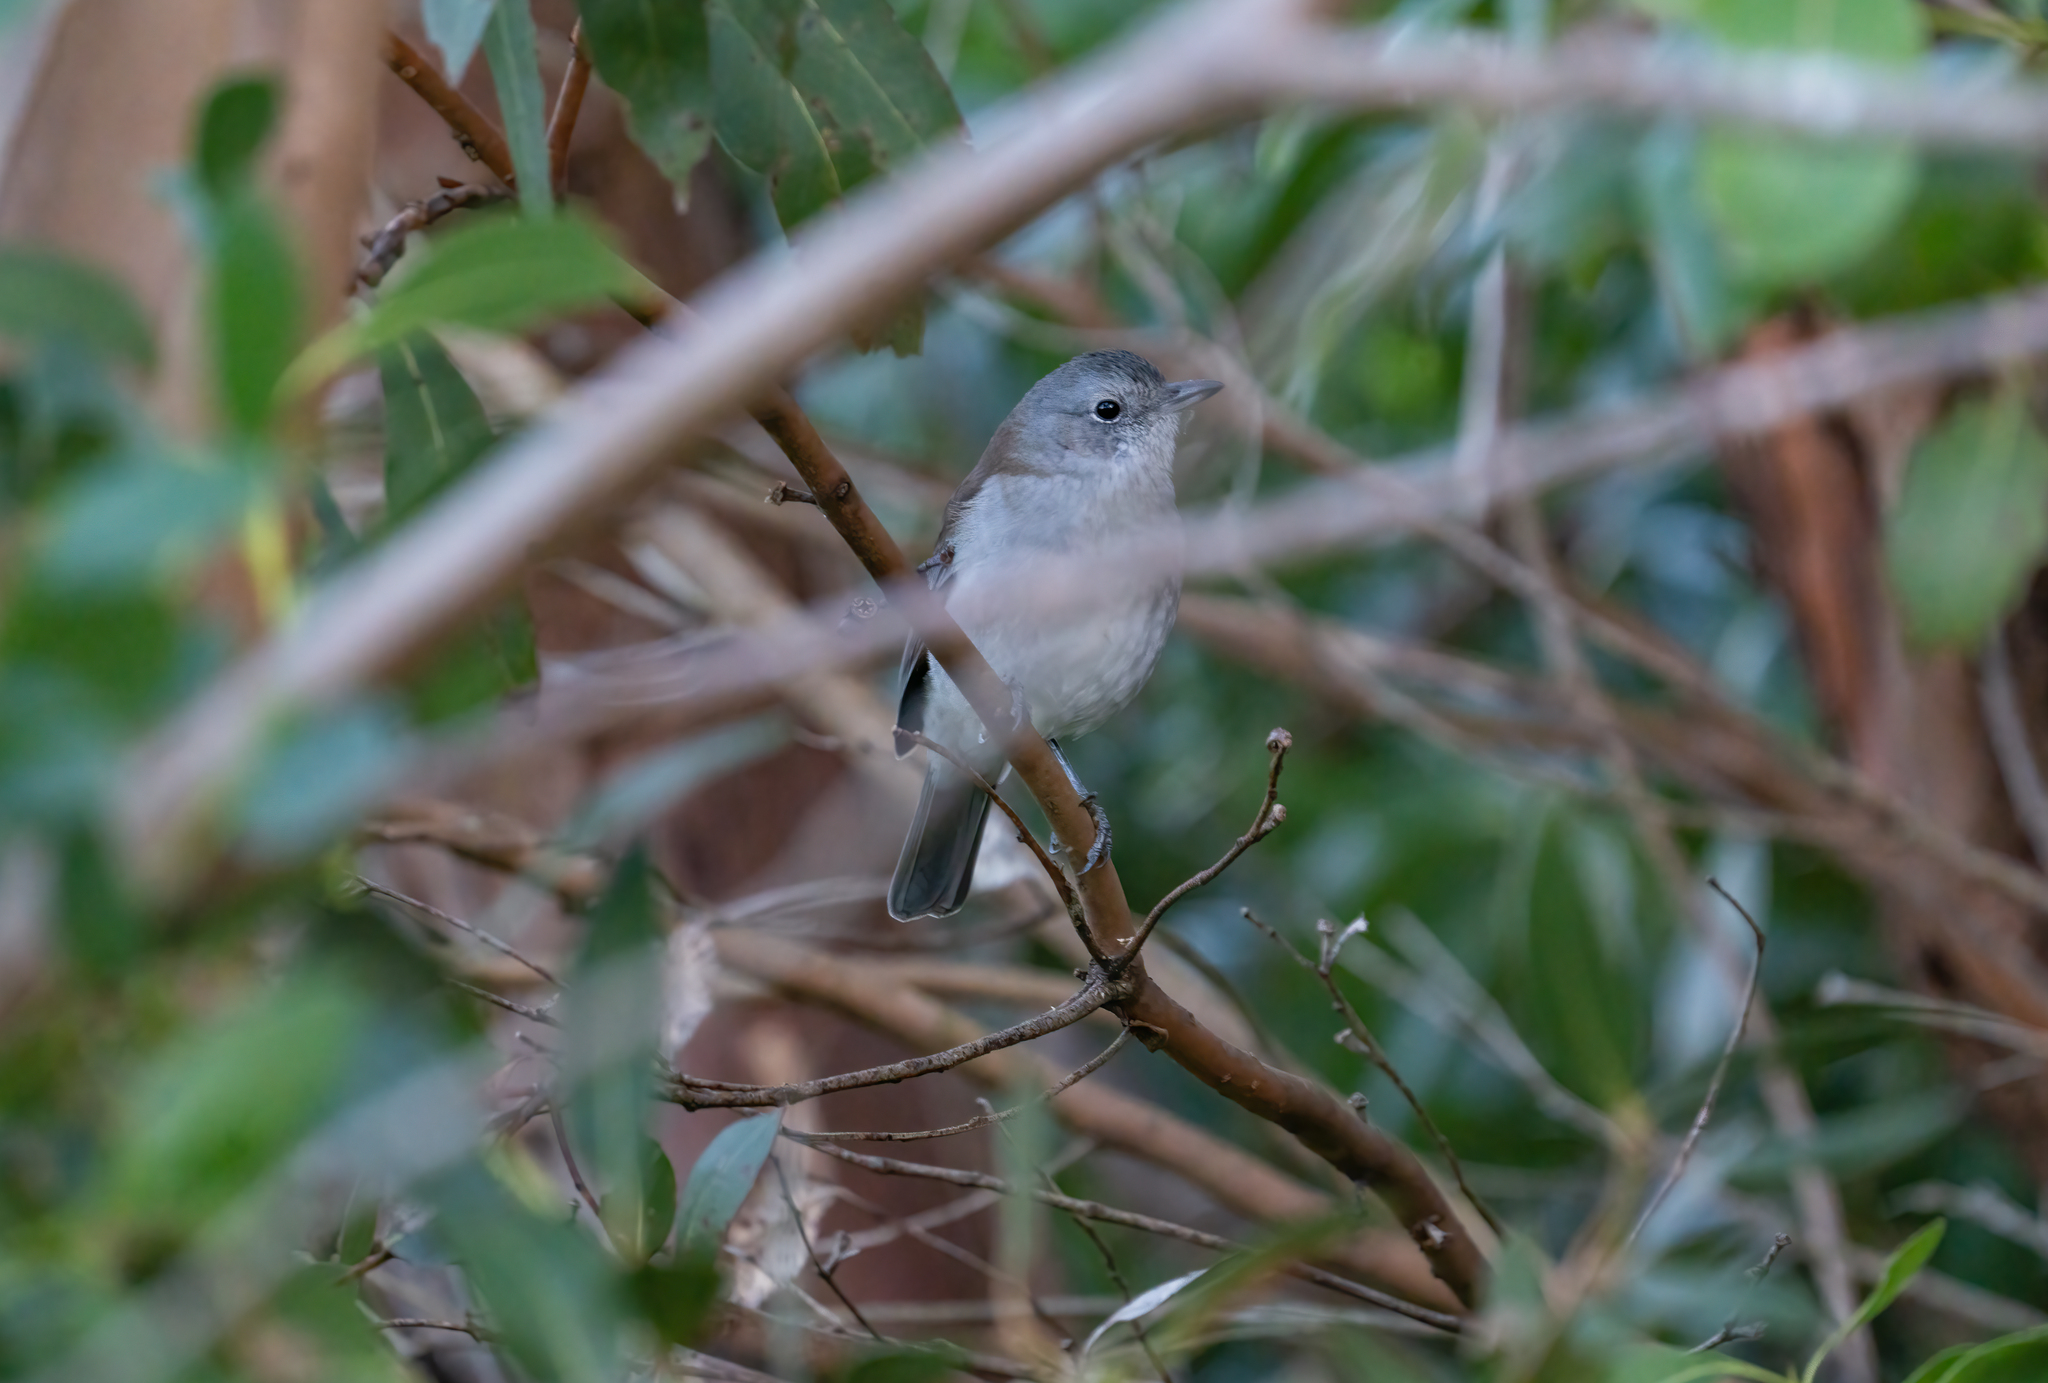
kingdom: Animalia
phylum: Chordata
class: Aves
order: Passeriformes
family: Pachycephalidae
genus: Pachycephala
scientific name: Pachycephala pectoralis
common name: Australian golden whistler
